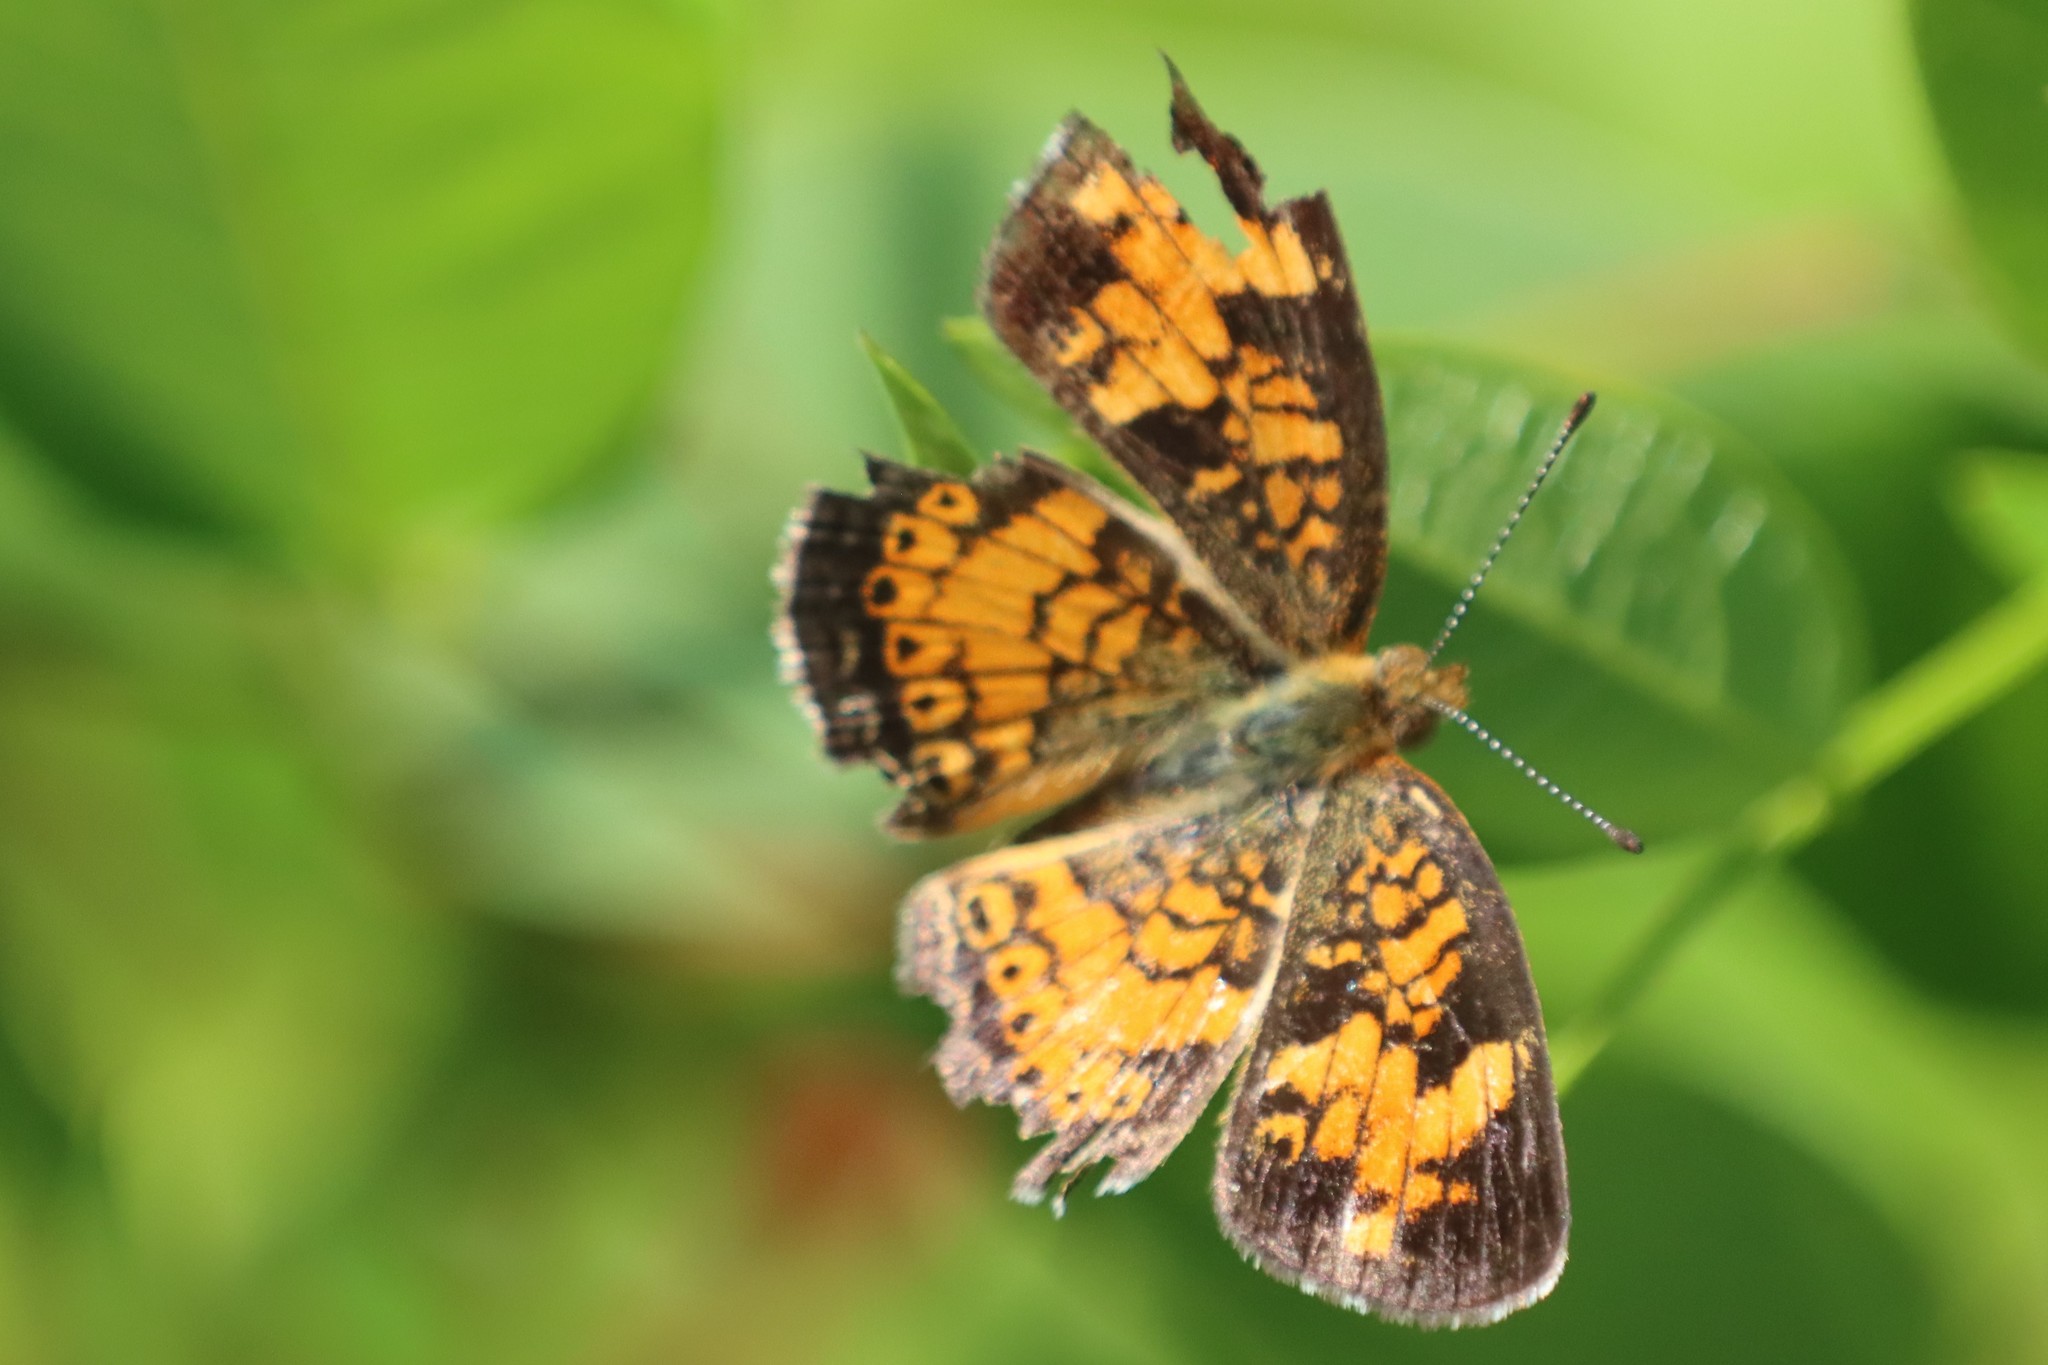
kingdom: Animalia
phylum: Arthropoda
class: Insecta
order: Lepidoptera
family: Nymphalidae
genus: Phyciodes
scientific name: Phyciodes tharos
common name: Pearl crescent
